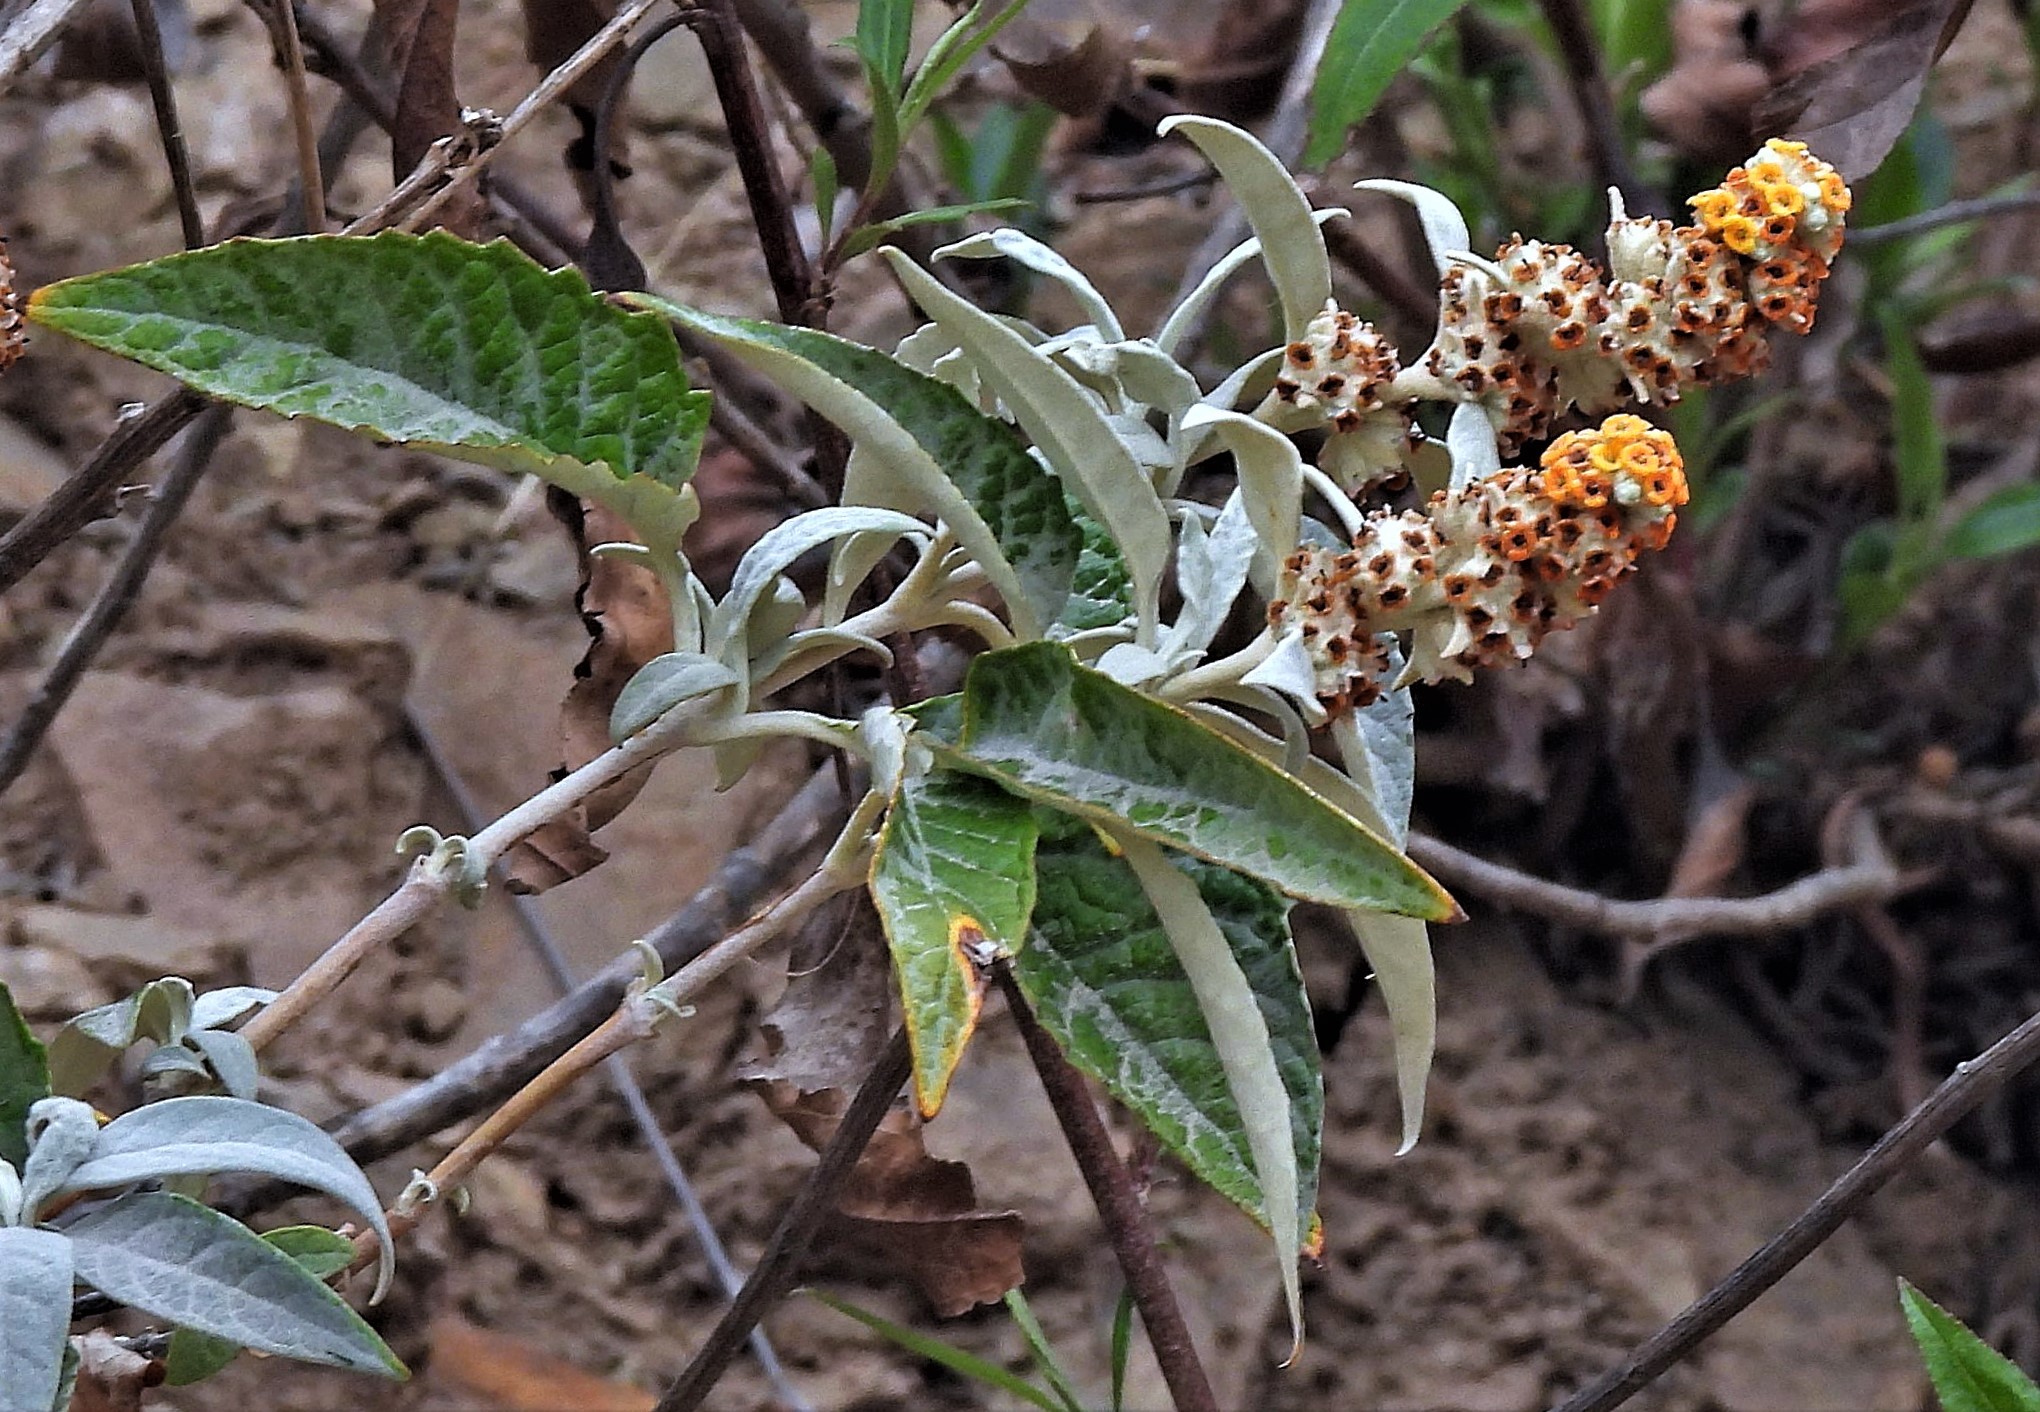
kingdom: Plantae
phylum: Tracheophyta
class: Magnoliopsida
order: Lamiales
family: Scrophulariaceae
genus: Buddleja
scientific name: Buddleja tucumanensis
